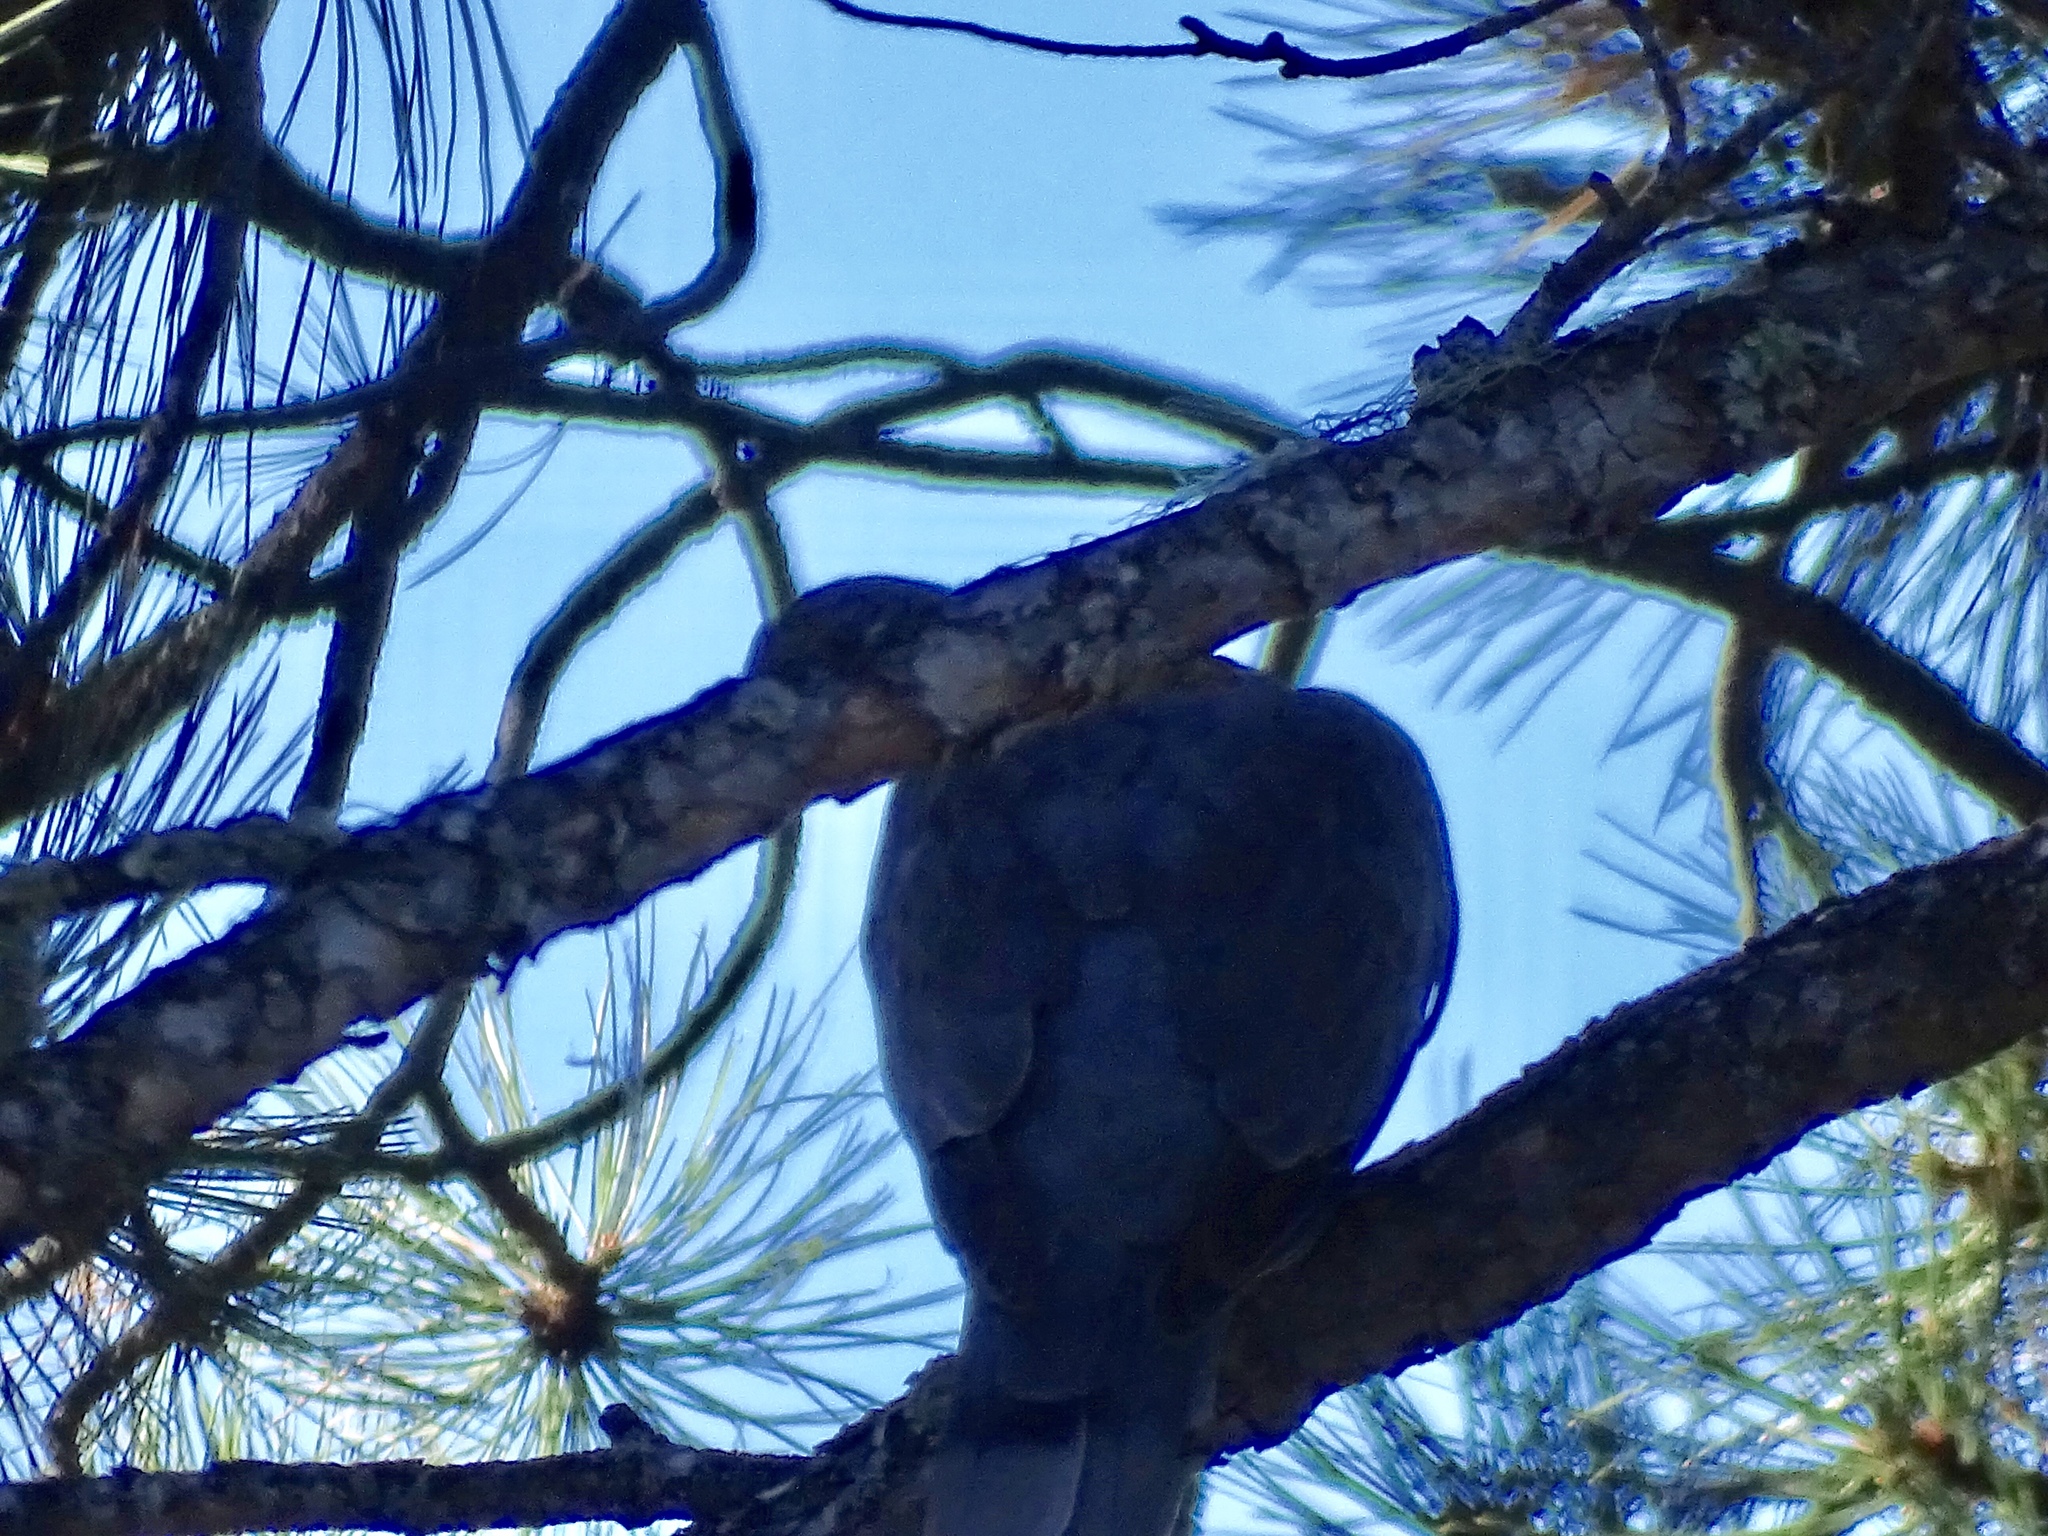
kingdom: Animalia
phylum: Chordata
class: Aves
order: Columbiformes
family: Columbidae
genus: Patagioenas
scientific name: Patagioenas fasciata
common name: Band-tailed pigeon
